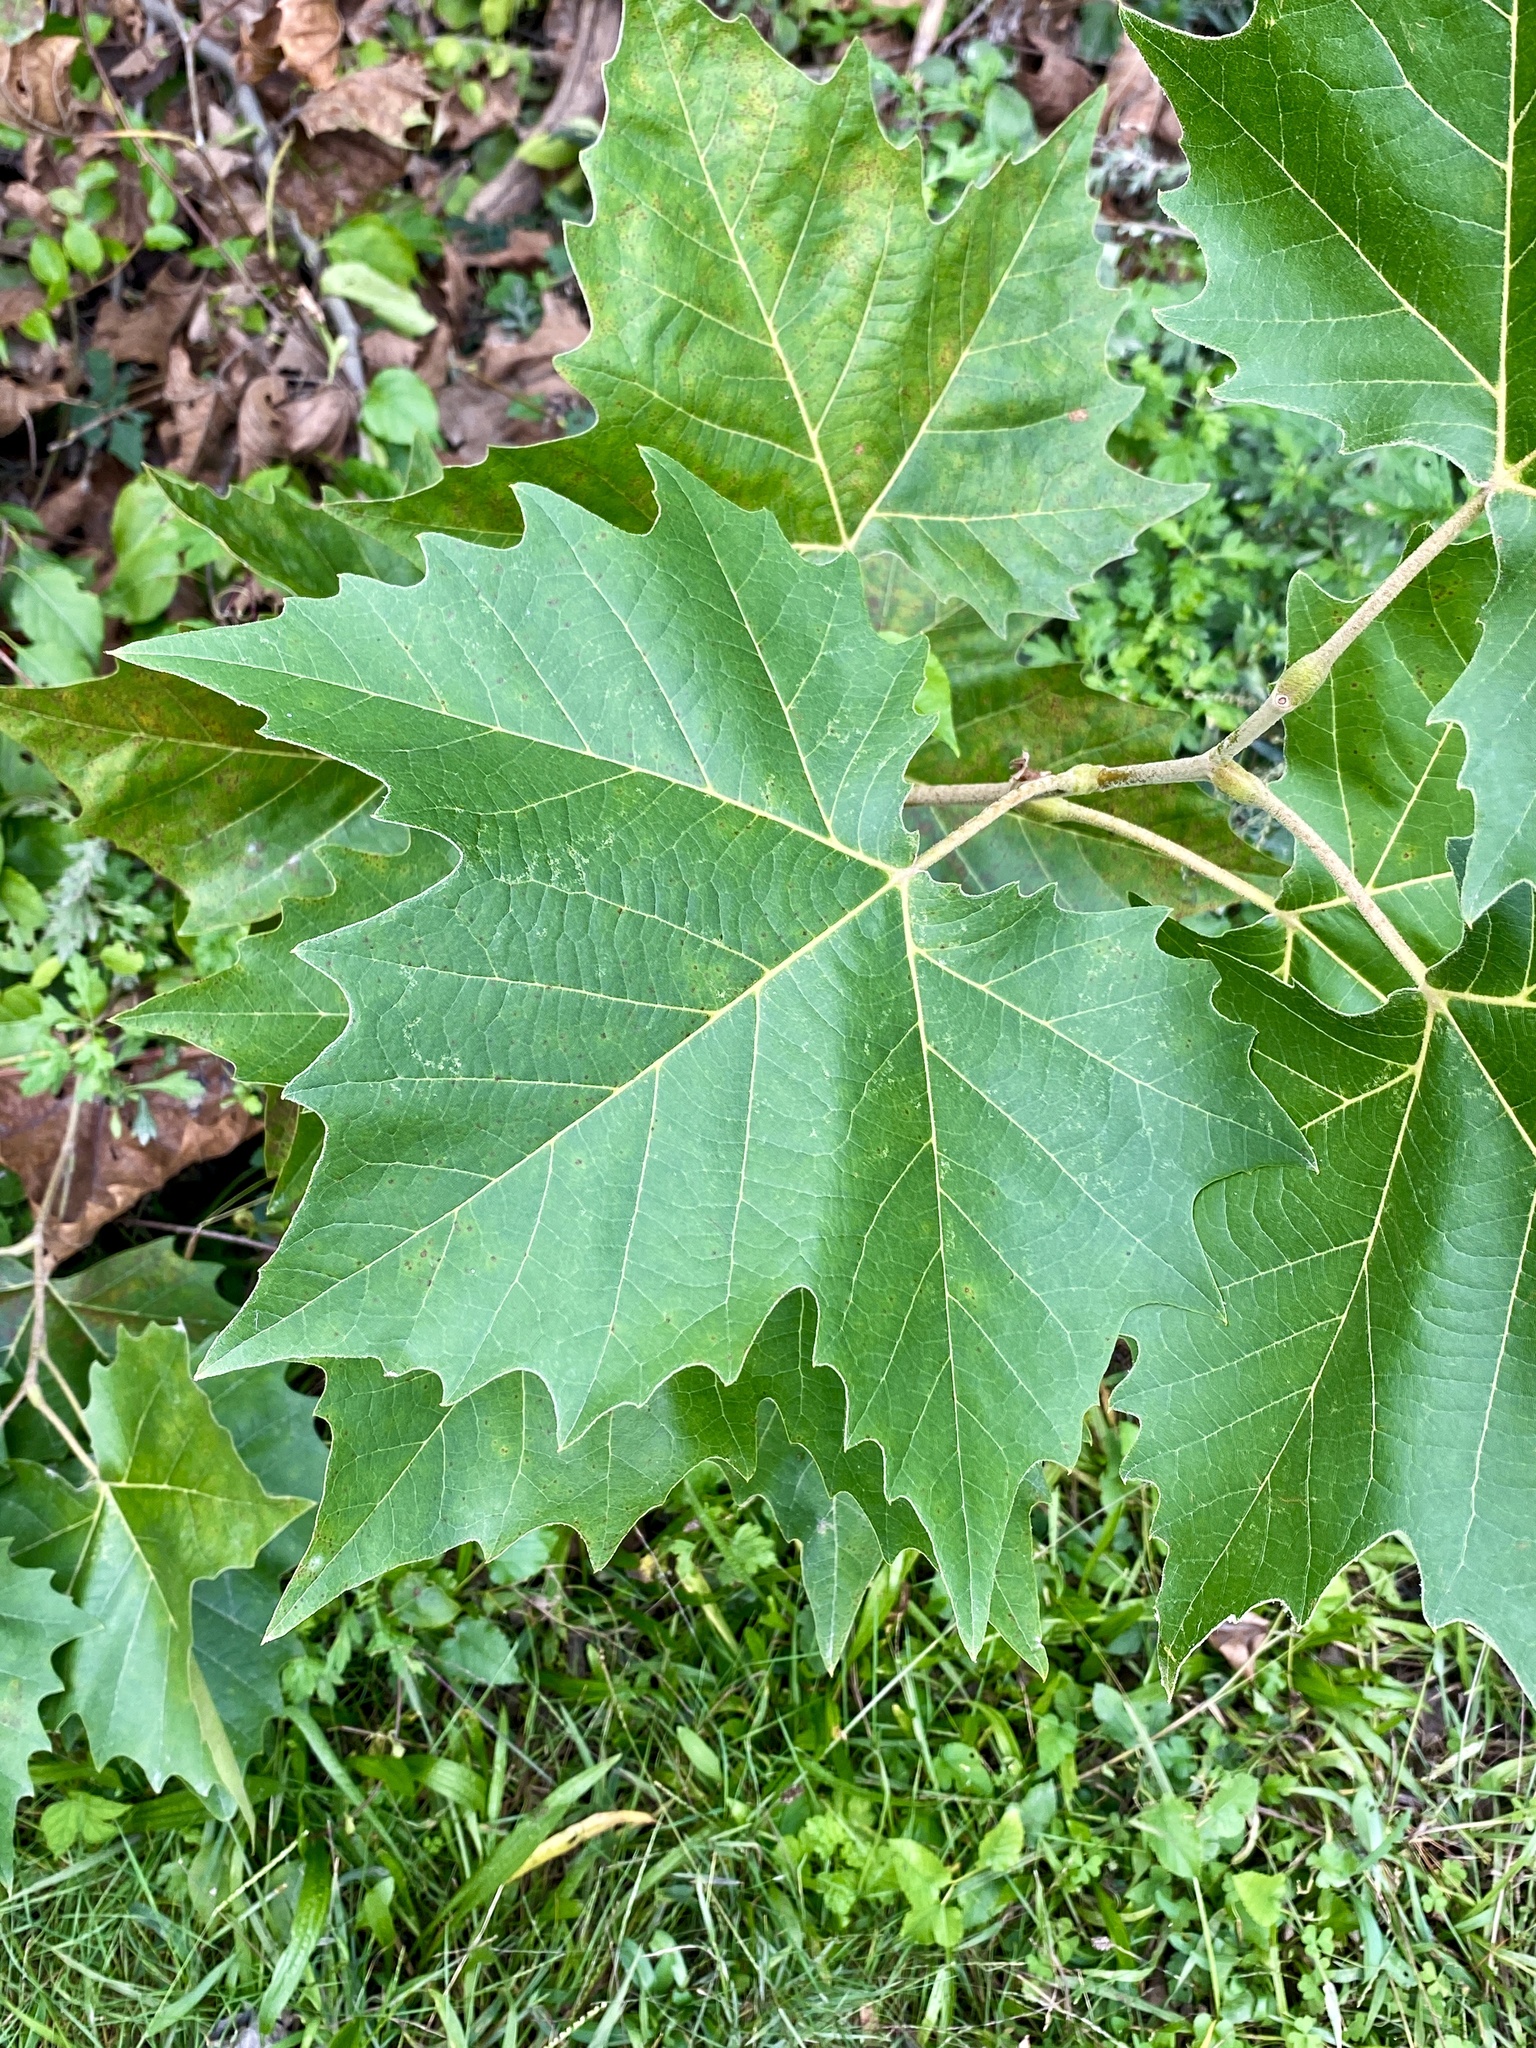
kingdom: Plantae
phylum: Tracheophyta
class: Magnoliopsida
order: Proteales
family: Platanaceae
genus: Platanus
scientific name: Platanus occidentalis
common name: American sycamore
